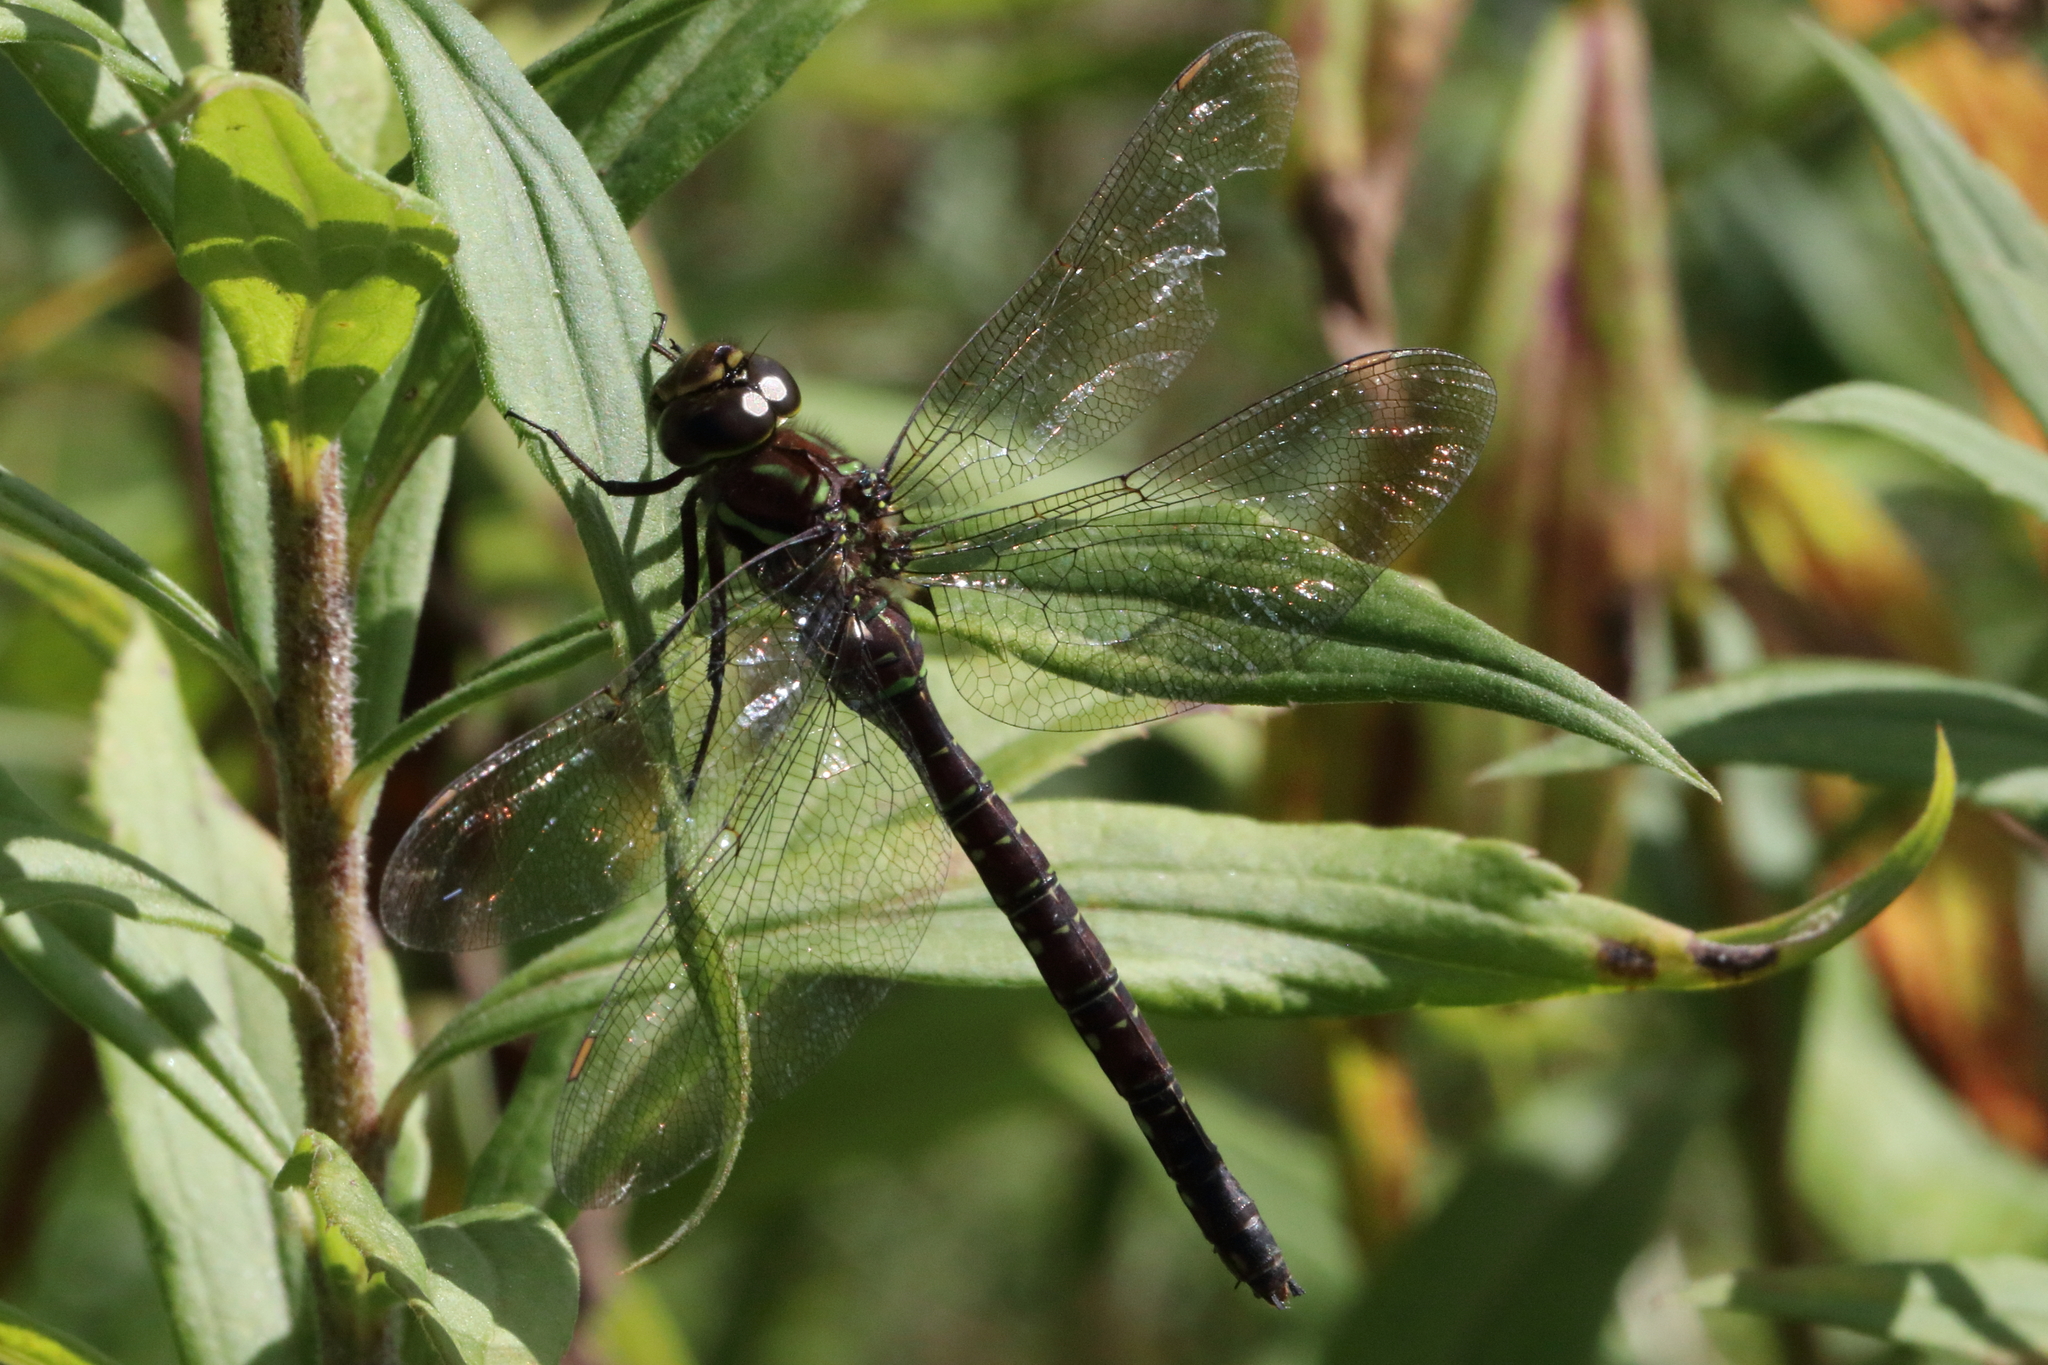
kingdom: Animalia
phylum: Arthropoda
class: Insecta
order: Odonata
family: Aeshnidae
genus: Aeshna
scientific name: Aeshna umbrosa
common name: Shadow darner
